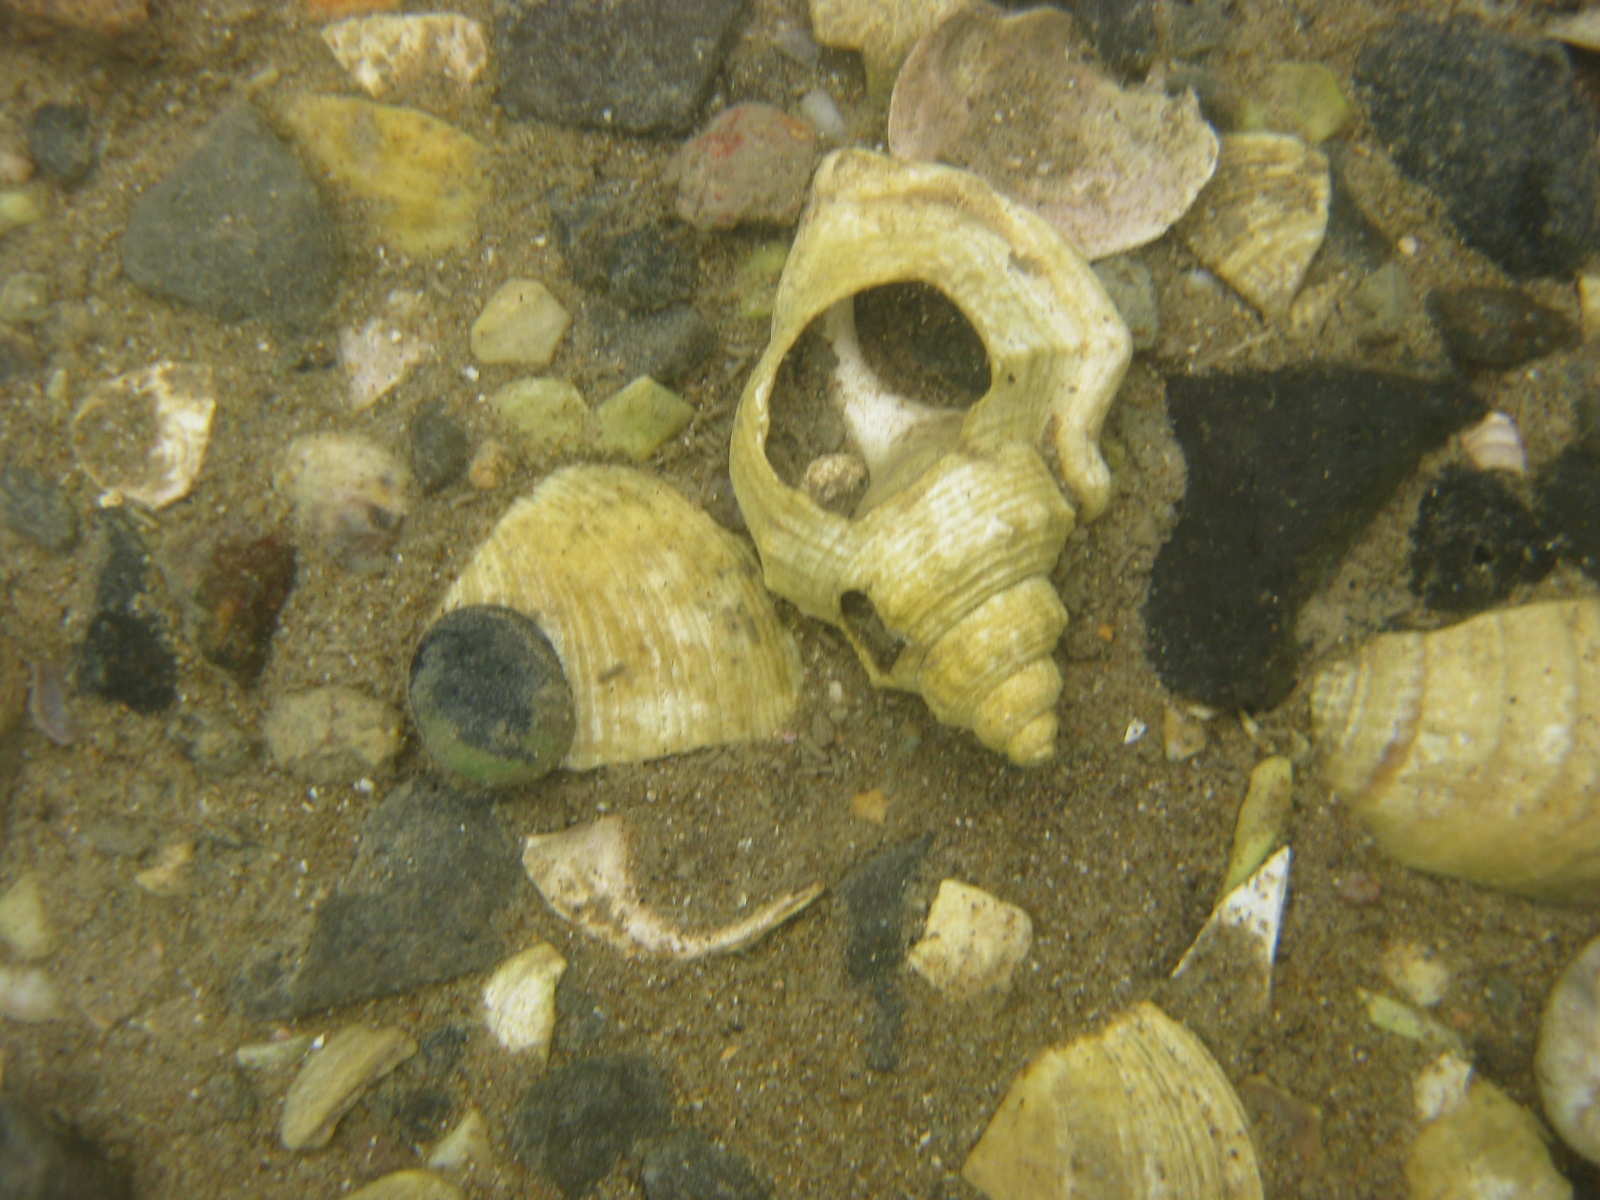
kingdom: Animalia
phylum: Mollusca
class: Gastropoda
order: Littorinimorpha
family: Struthiolariidae
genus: Struthiolaria
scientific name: Struthiolaria papulosa
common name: Large ostrich foot
